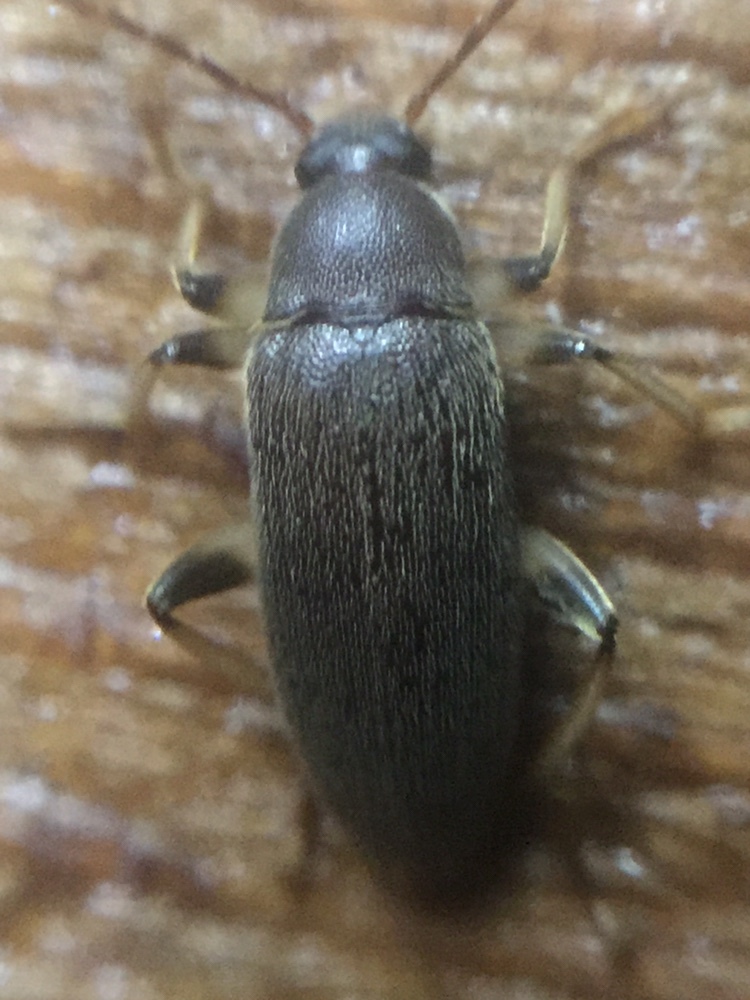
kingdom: Animalia
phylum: Arthropoda
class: Insecta
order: Coleoptera
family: Tenebrionidae
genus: Homotrysis
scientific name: Homotrysis
